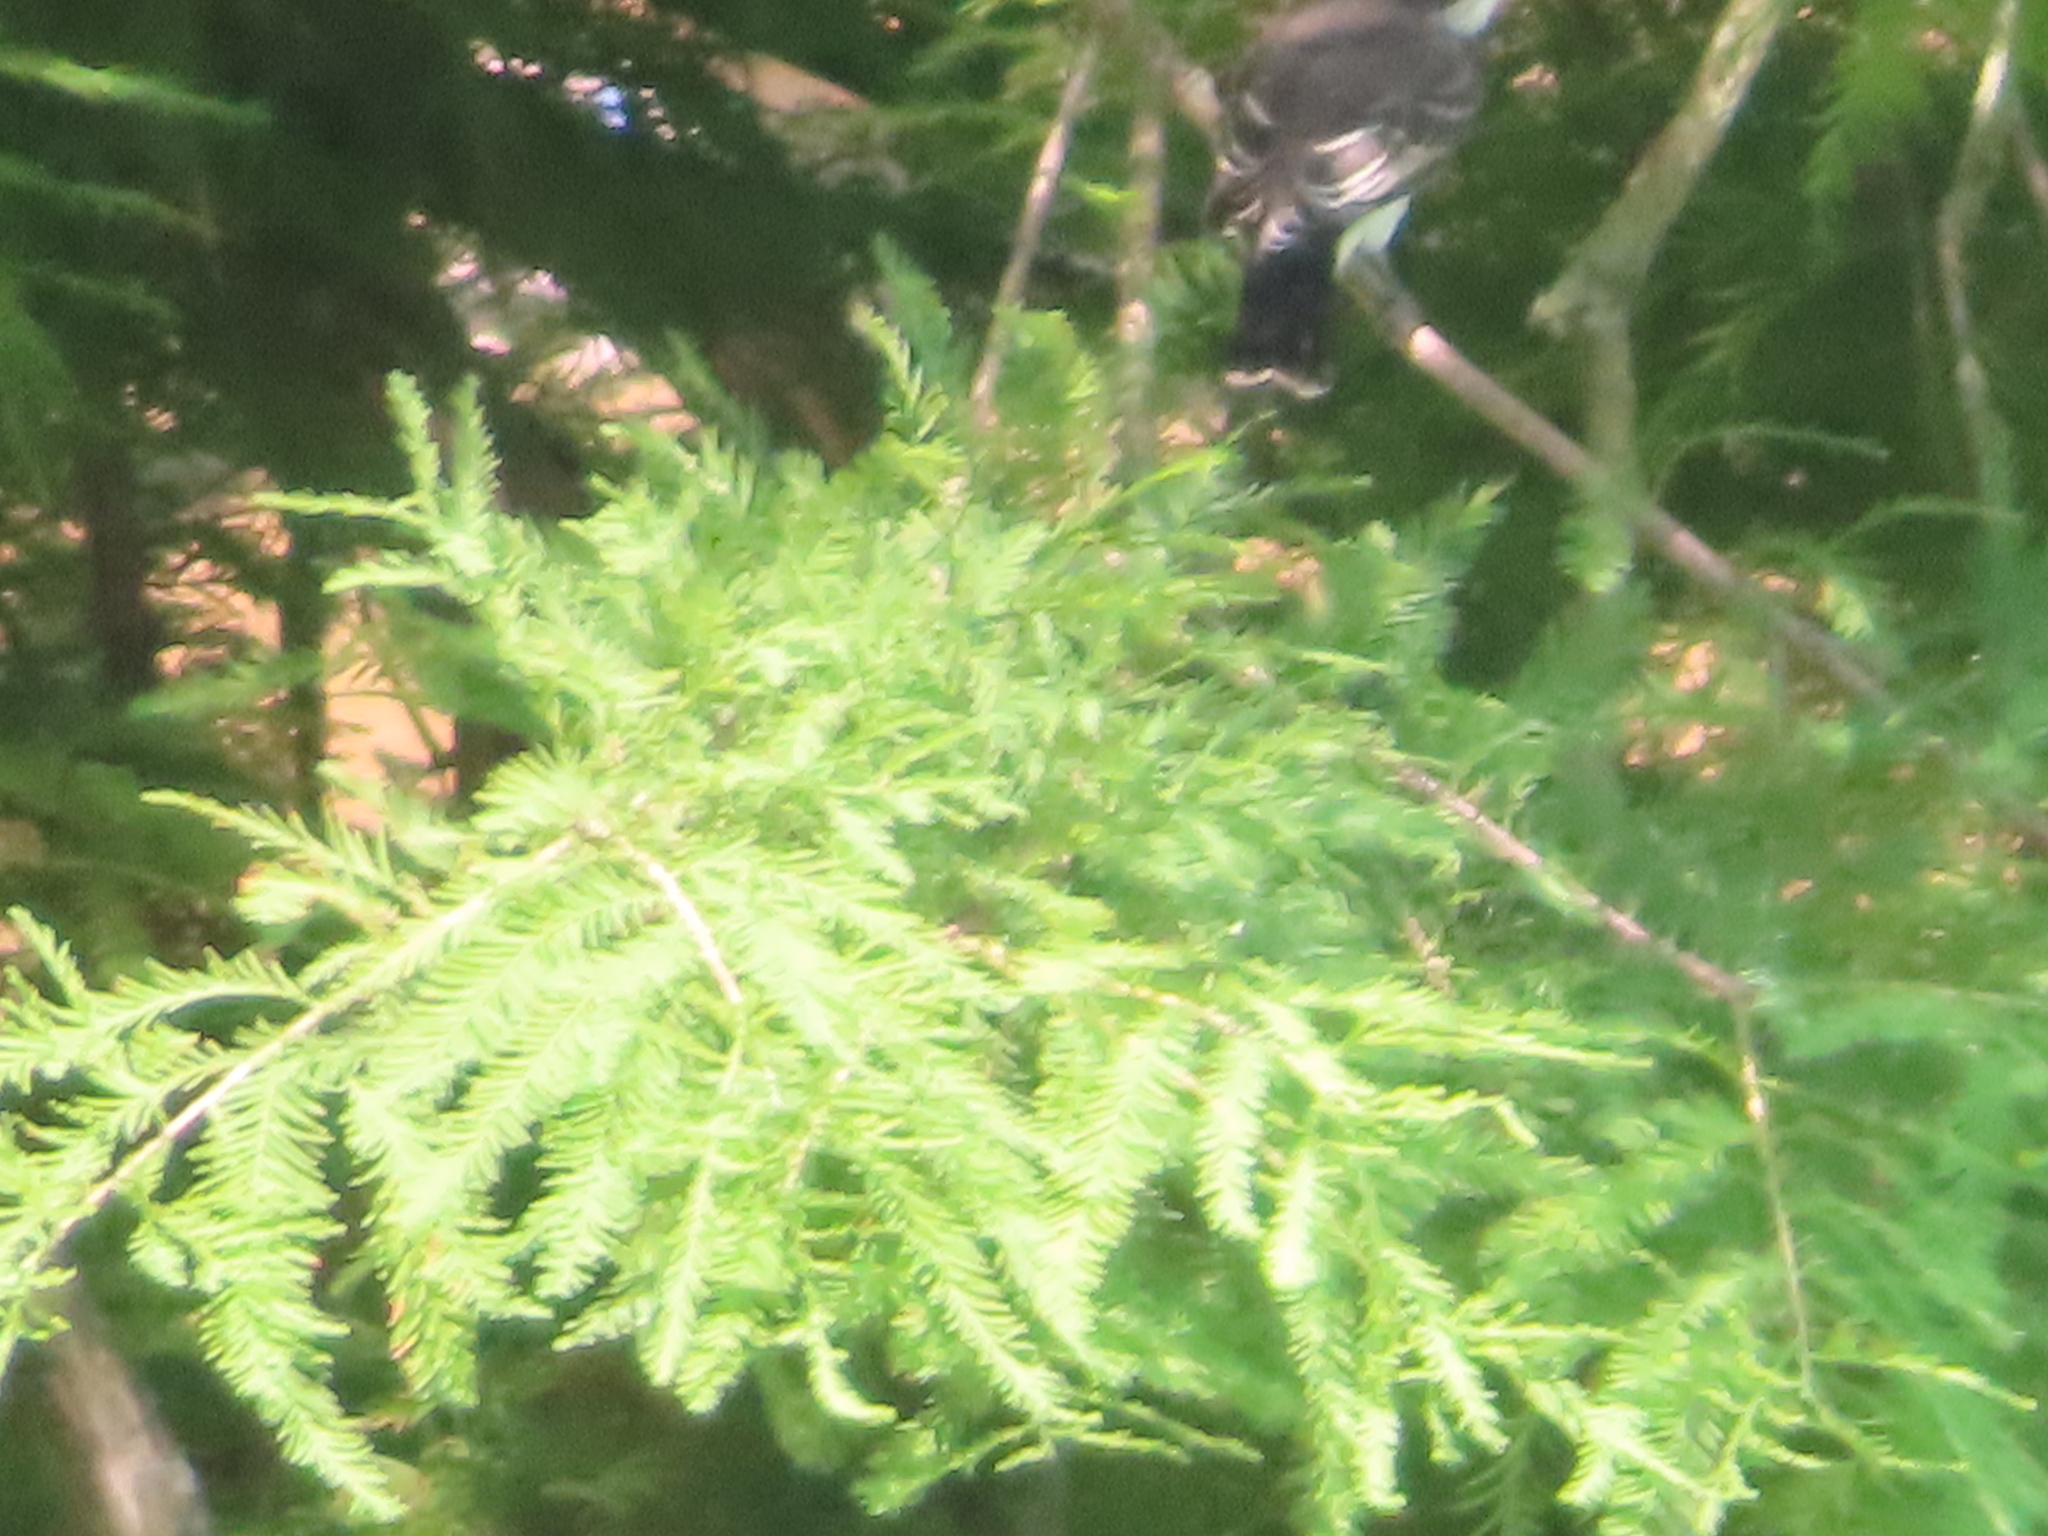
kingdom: Animalia
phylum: Chordata
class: Aves
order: Passeriformes
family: Tyrannidae
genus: Tyrannus
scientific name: Tyrannus tyrannus
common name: Eastern kingbird
